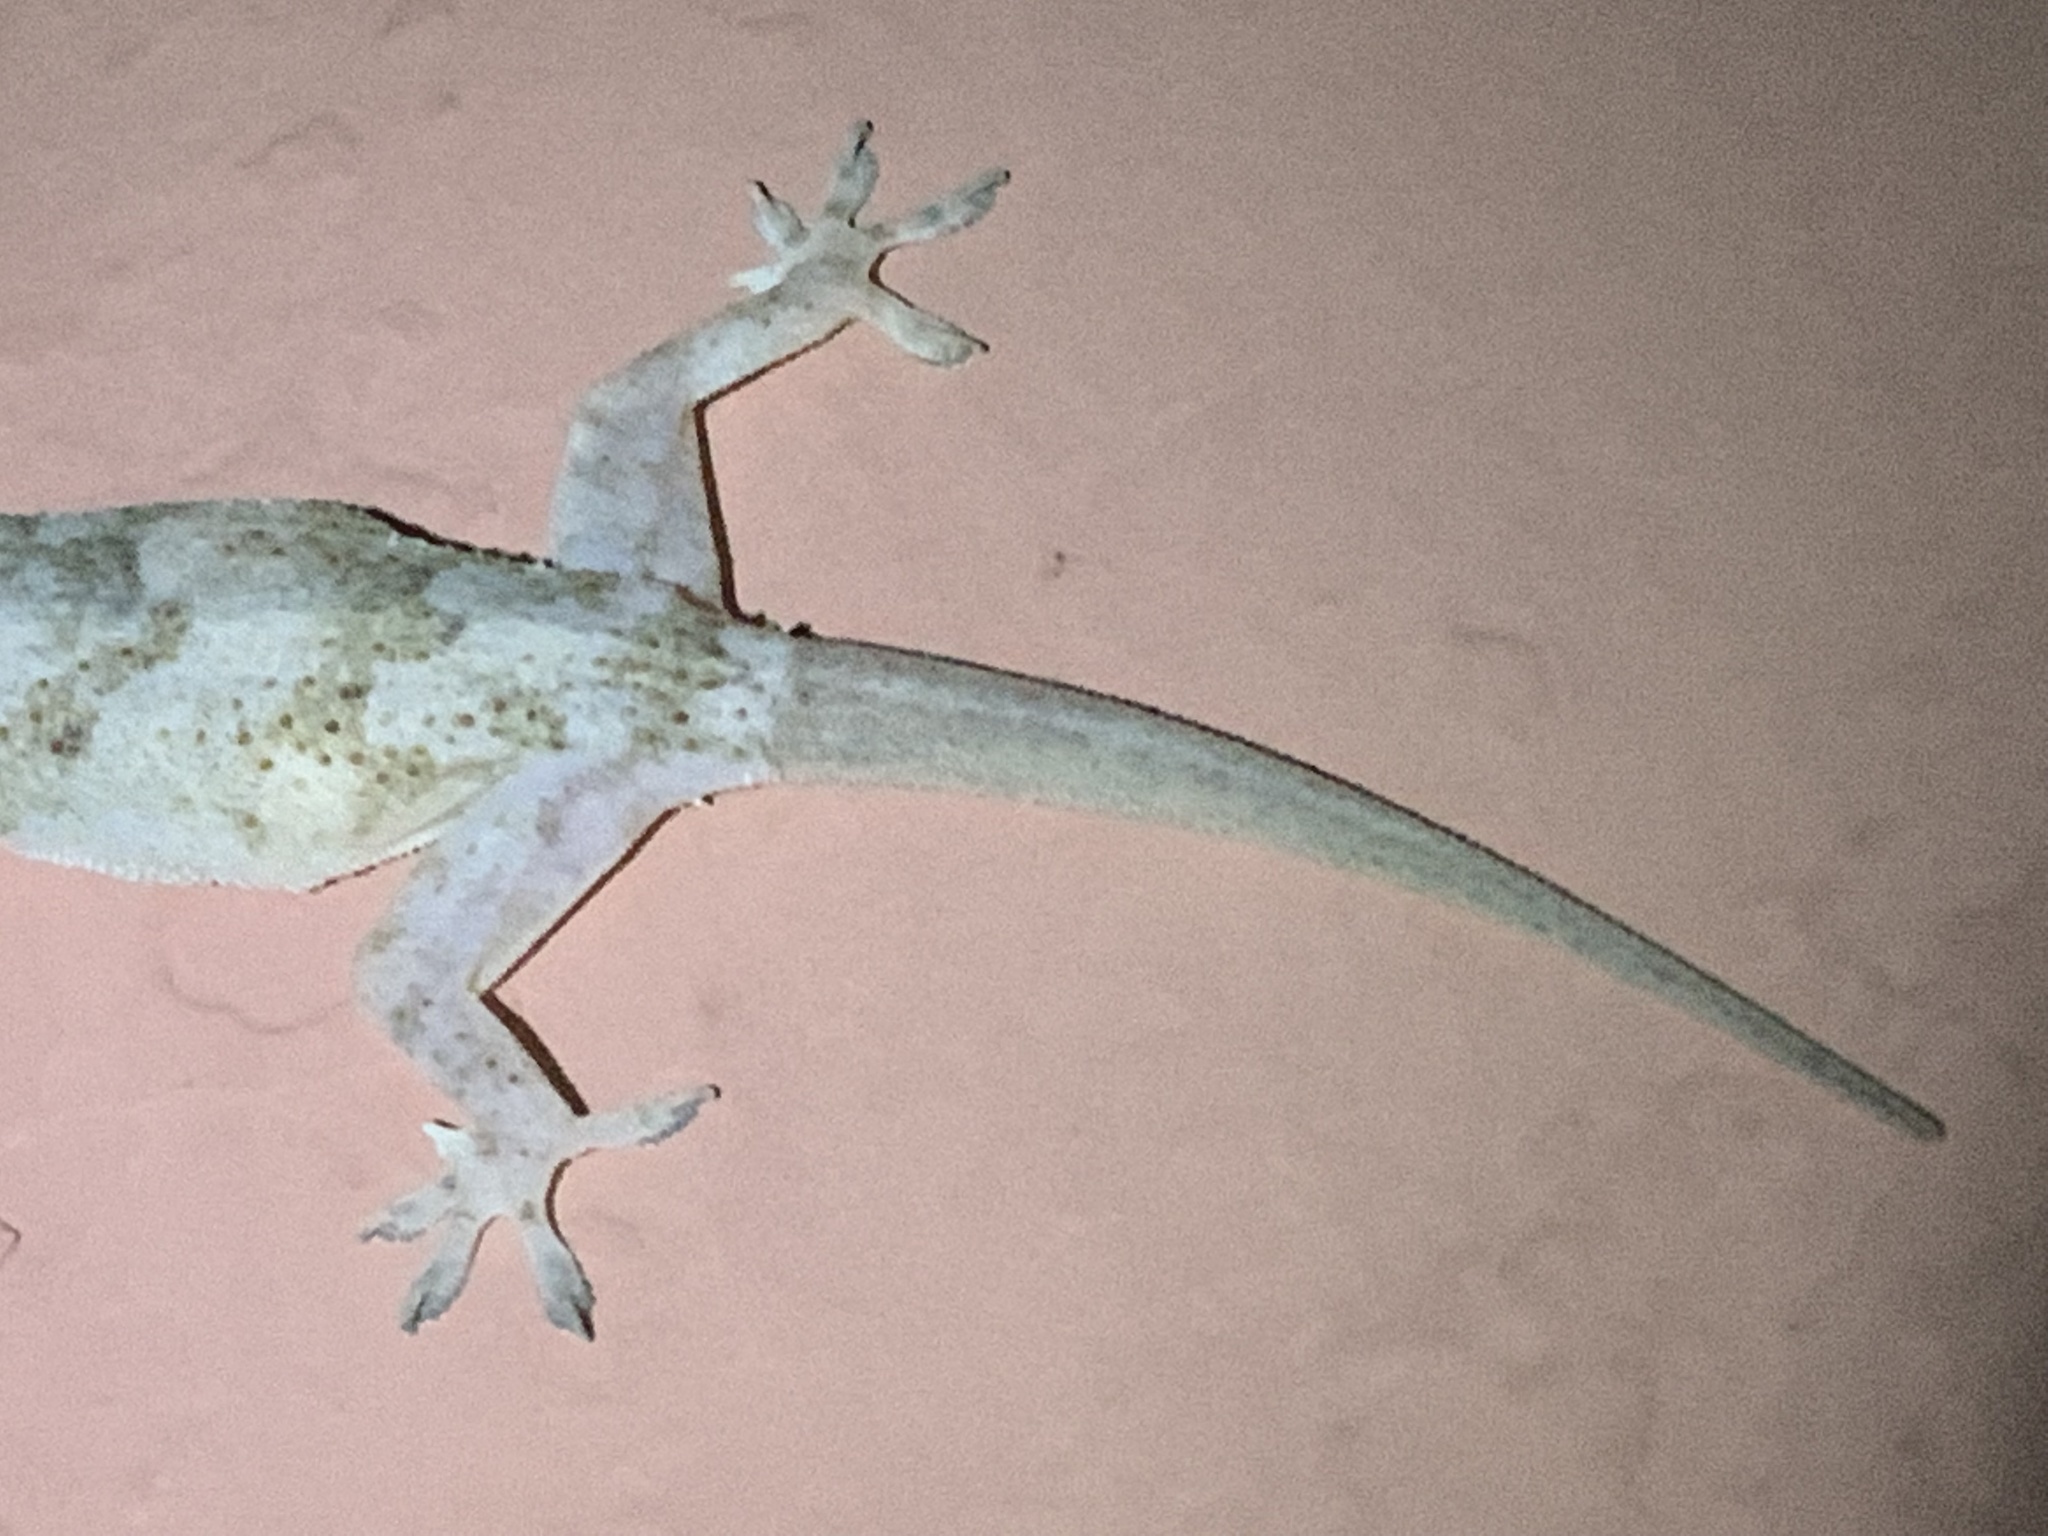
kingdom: Animalia
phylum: Chordata
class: Squamata
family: Gekkonidae
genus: Hemidactylus
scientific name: Hemidactylus mabouia
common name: House gecko
